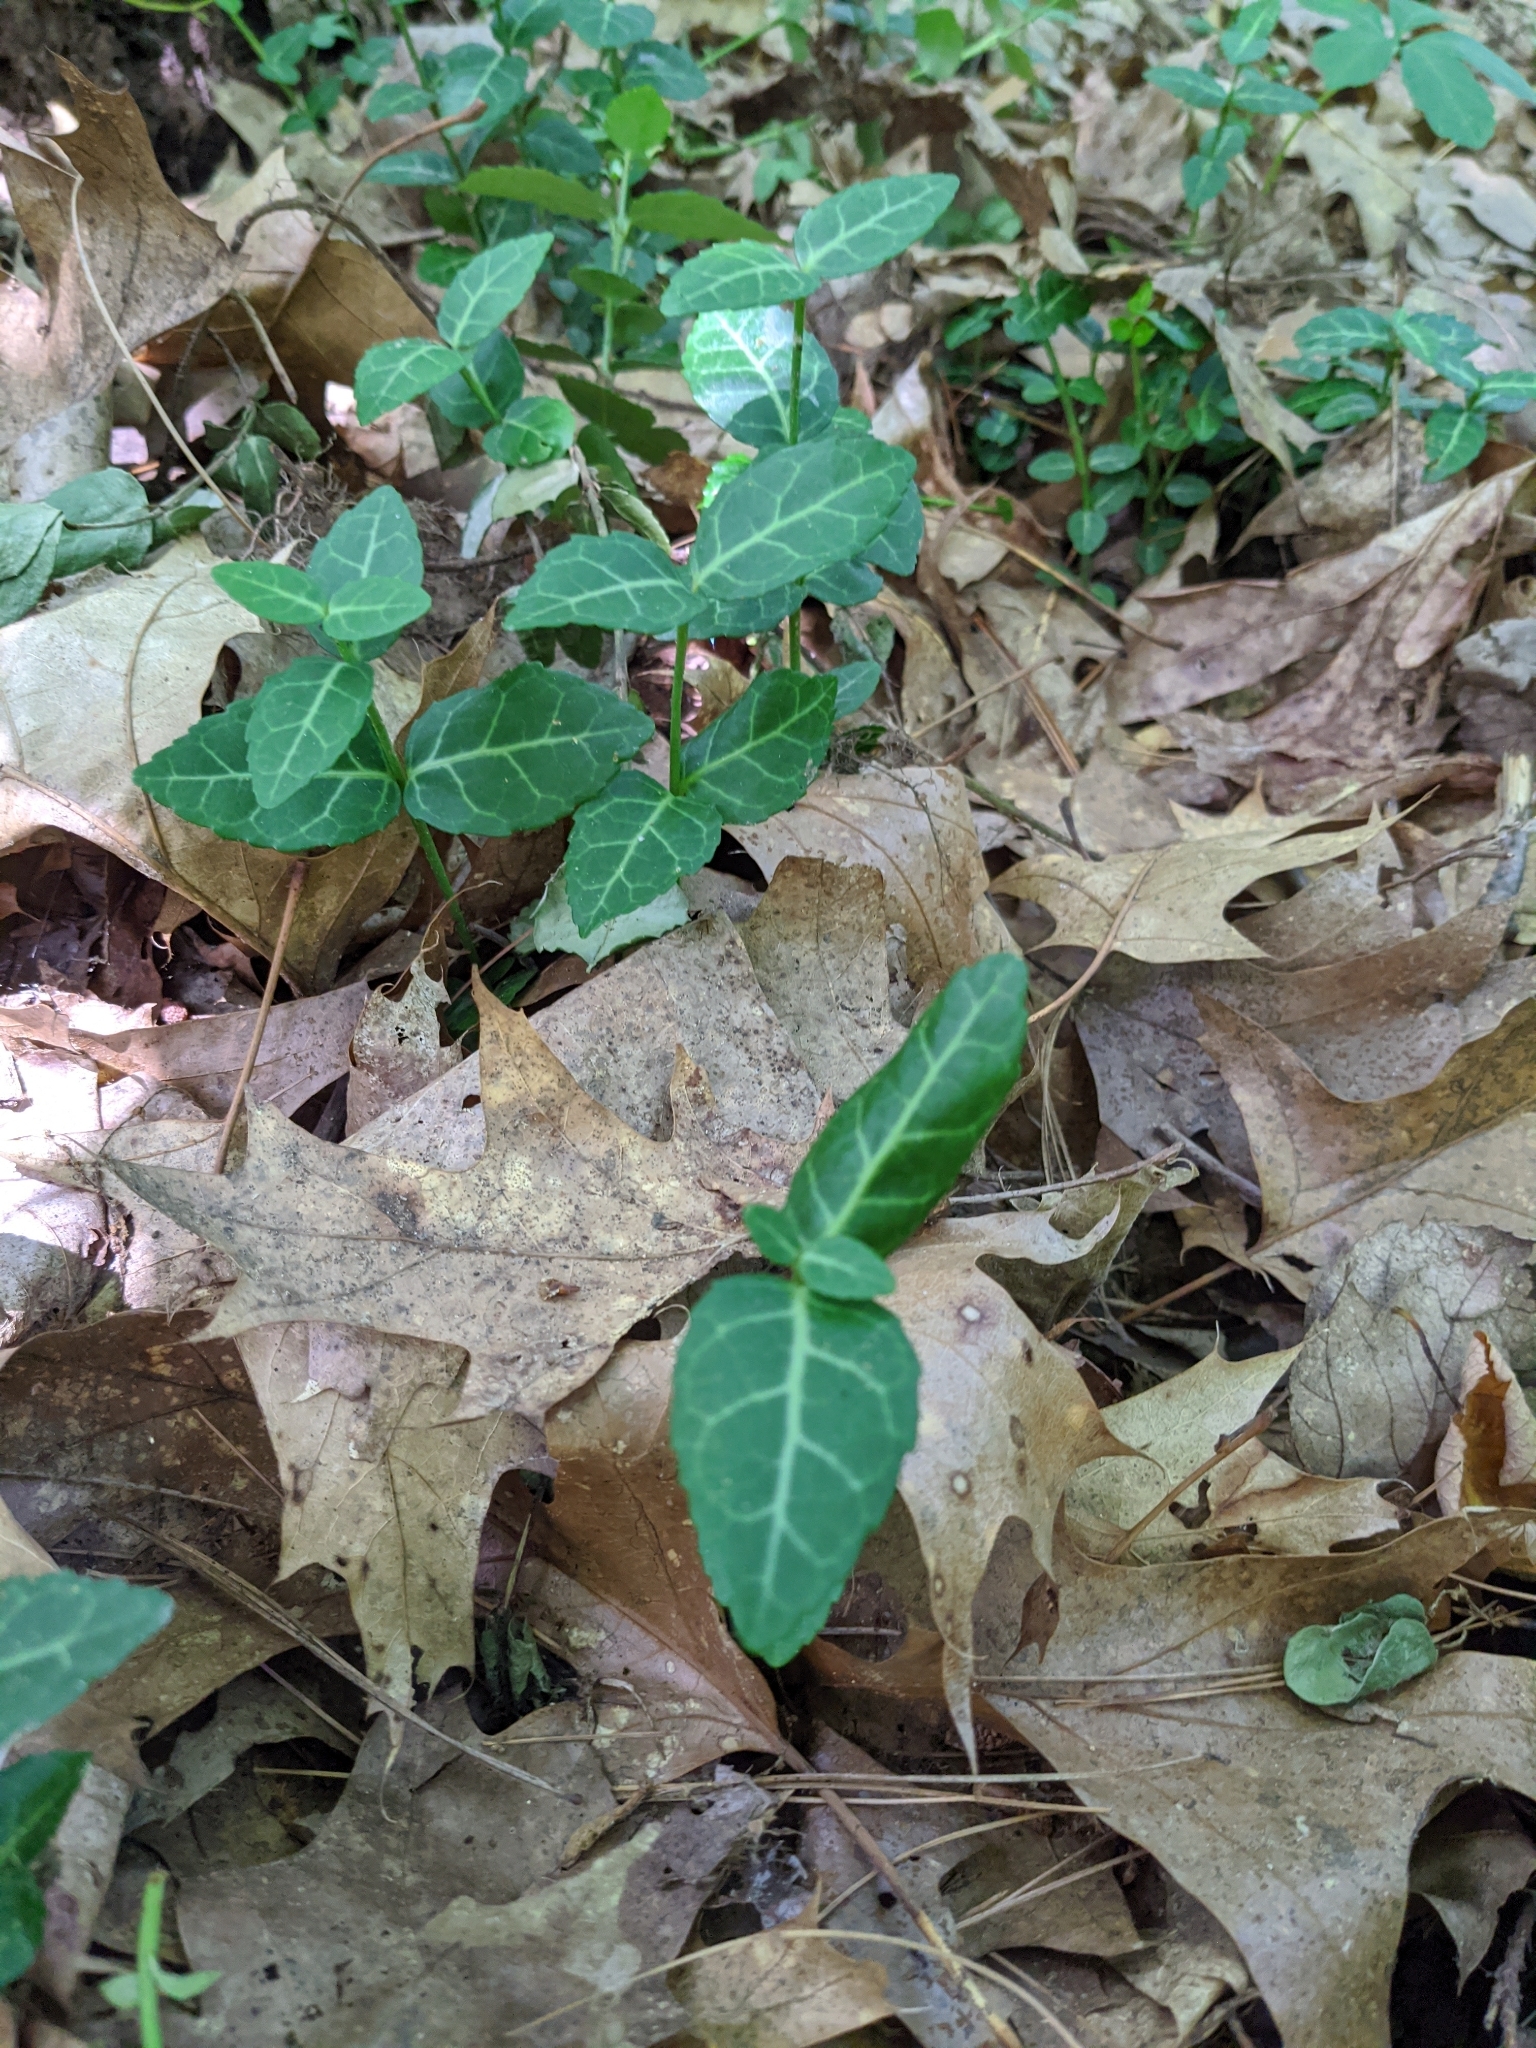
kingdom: Plantae
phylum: Tracheophyta
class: Magnoliopsida
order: Celastrales
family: Celastraceae
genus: Euonymus
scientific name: Euonymus fortunei
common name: Climbing euonymus
